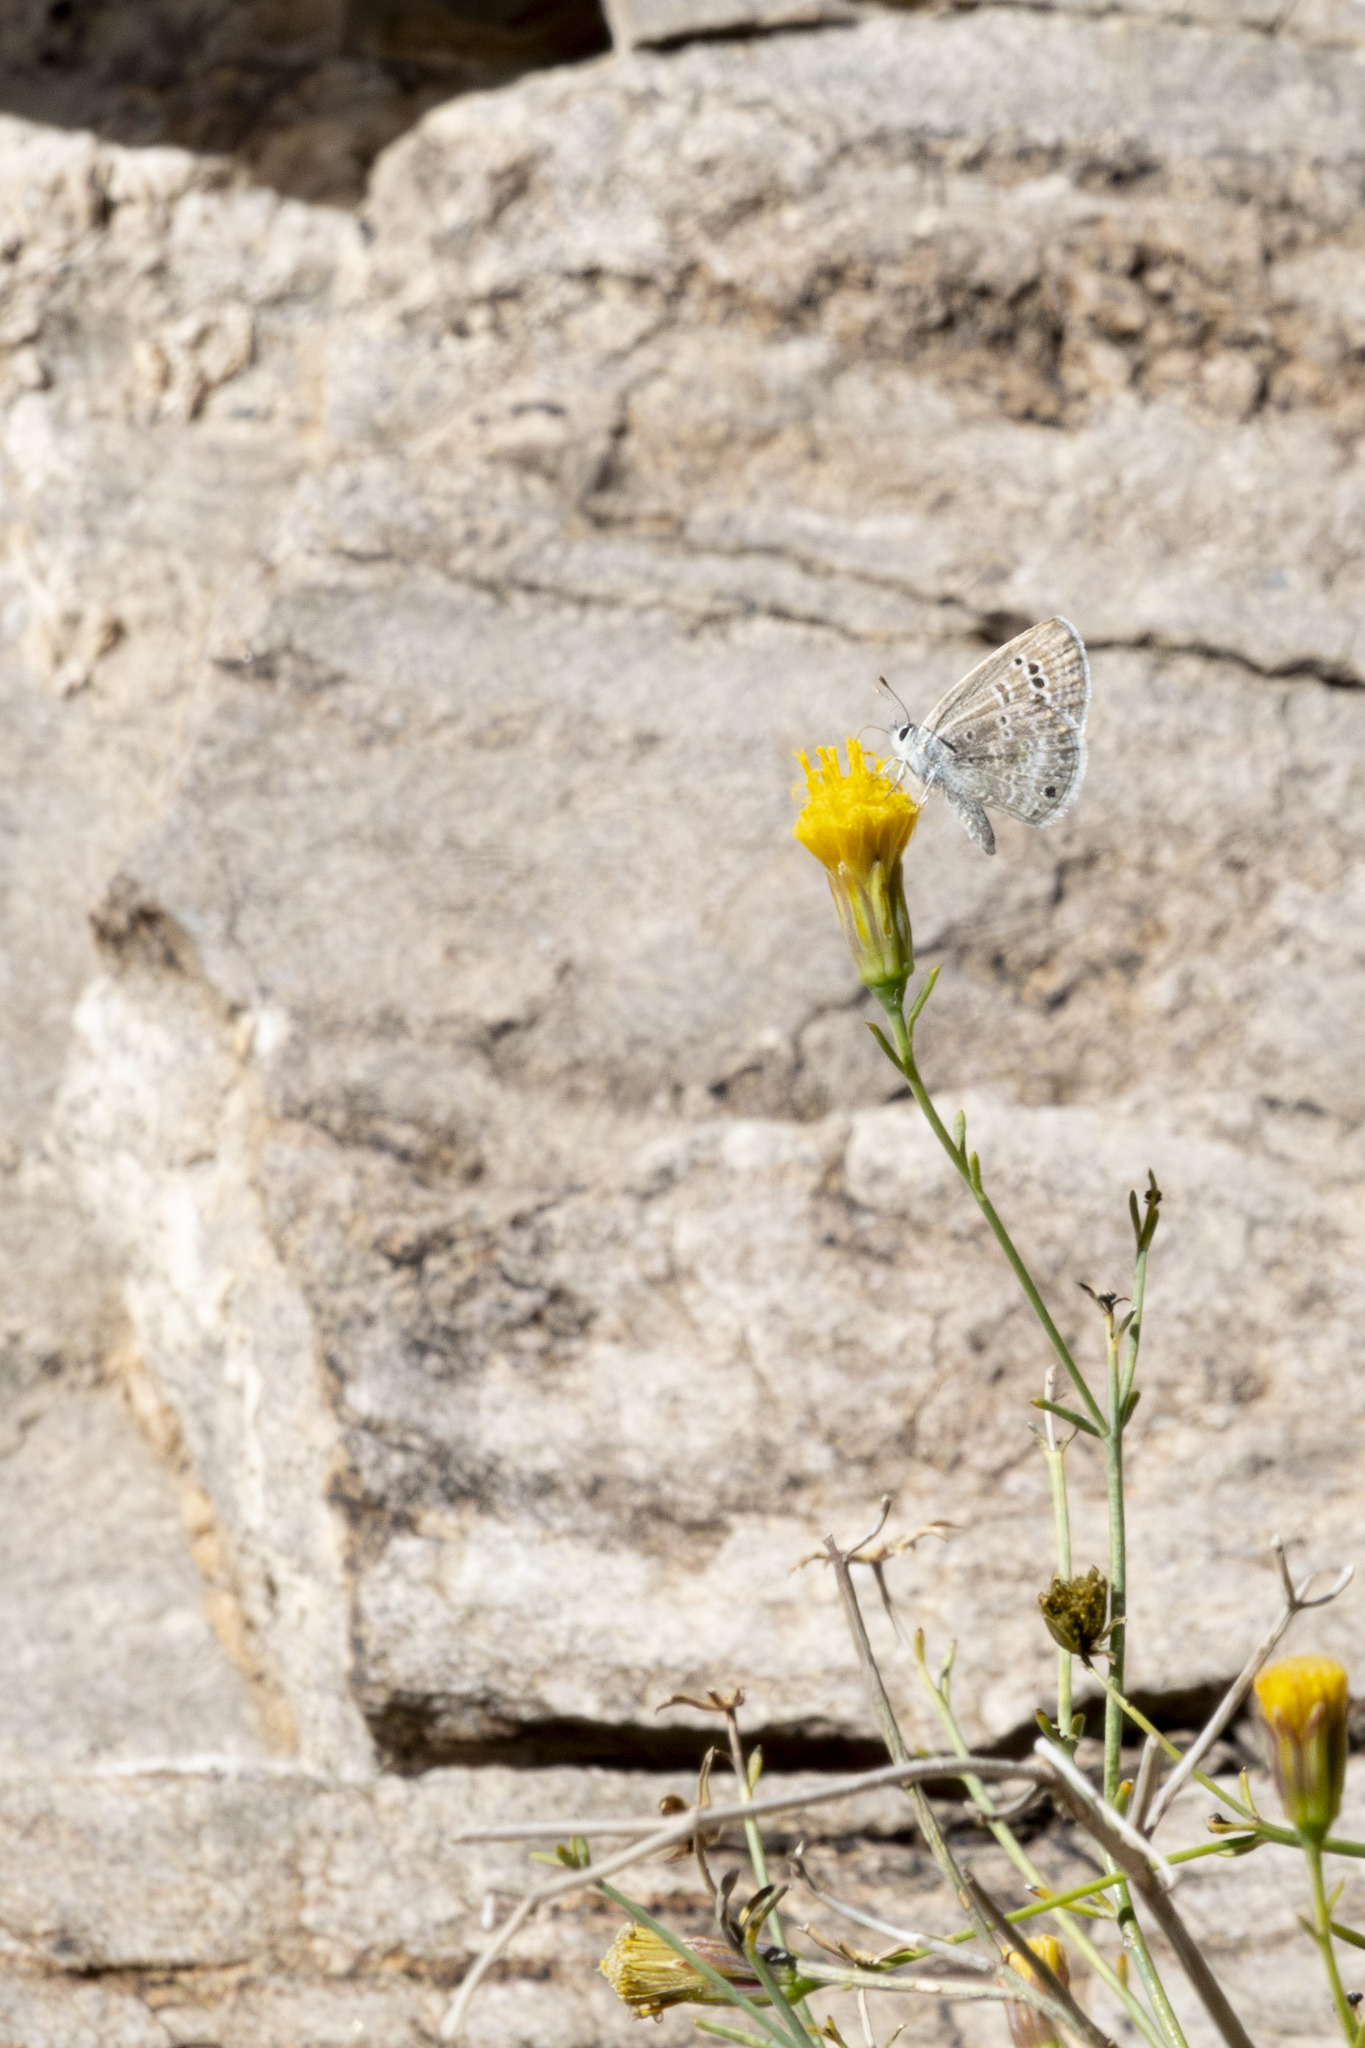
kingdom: Animalia
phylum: Arthropoda
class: Insecta
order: Lepidoptera
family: Lycaenidae
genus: Echinargus
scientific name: Echinargus isola
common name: Reakirt's blue
